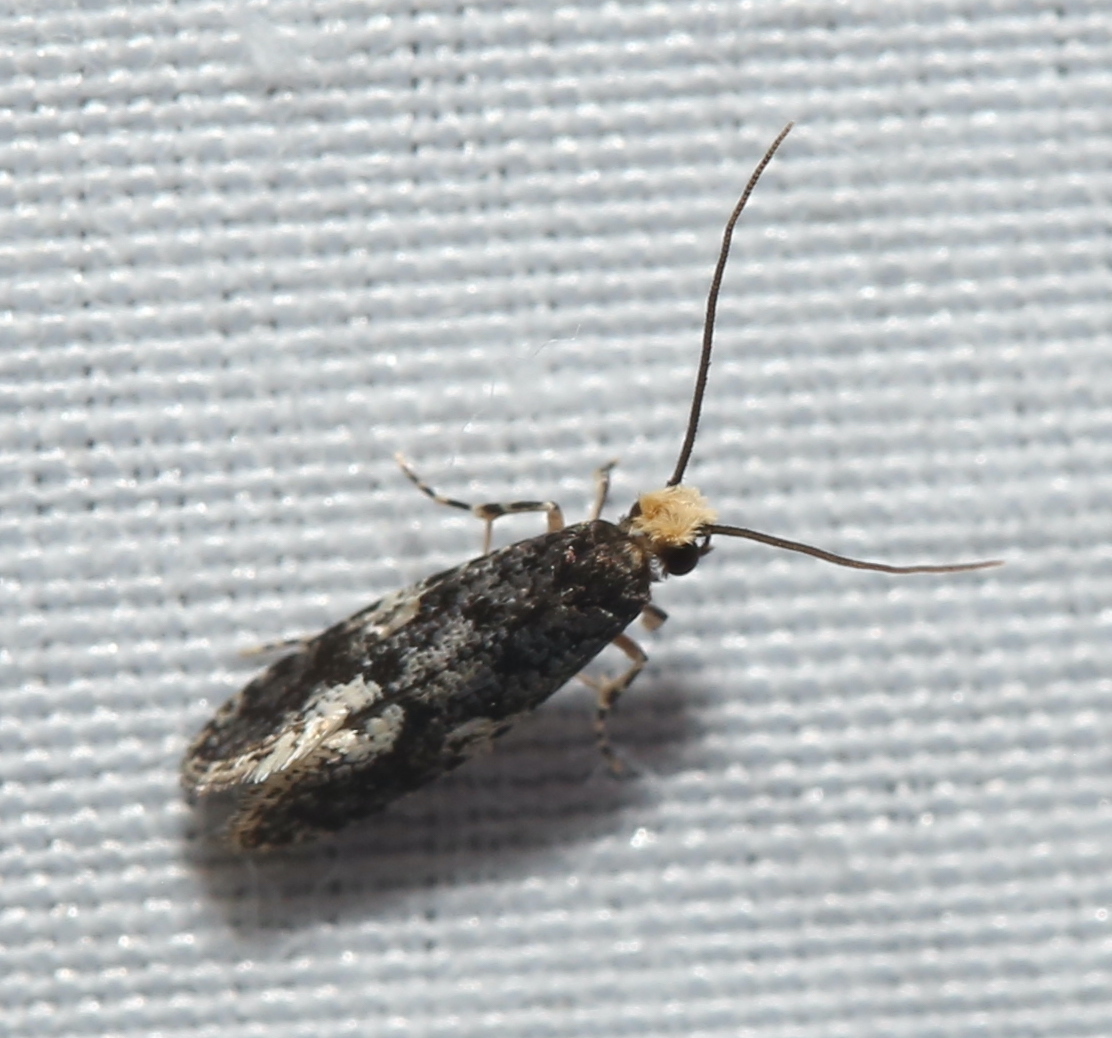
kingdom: Animalia
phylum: Arthropoda
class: Insecta
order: Lepidoptera
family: Tineidae
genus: Monopis
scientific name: Monopis marginistrigella
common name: White-blotched monopis moth
